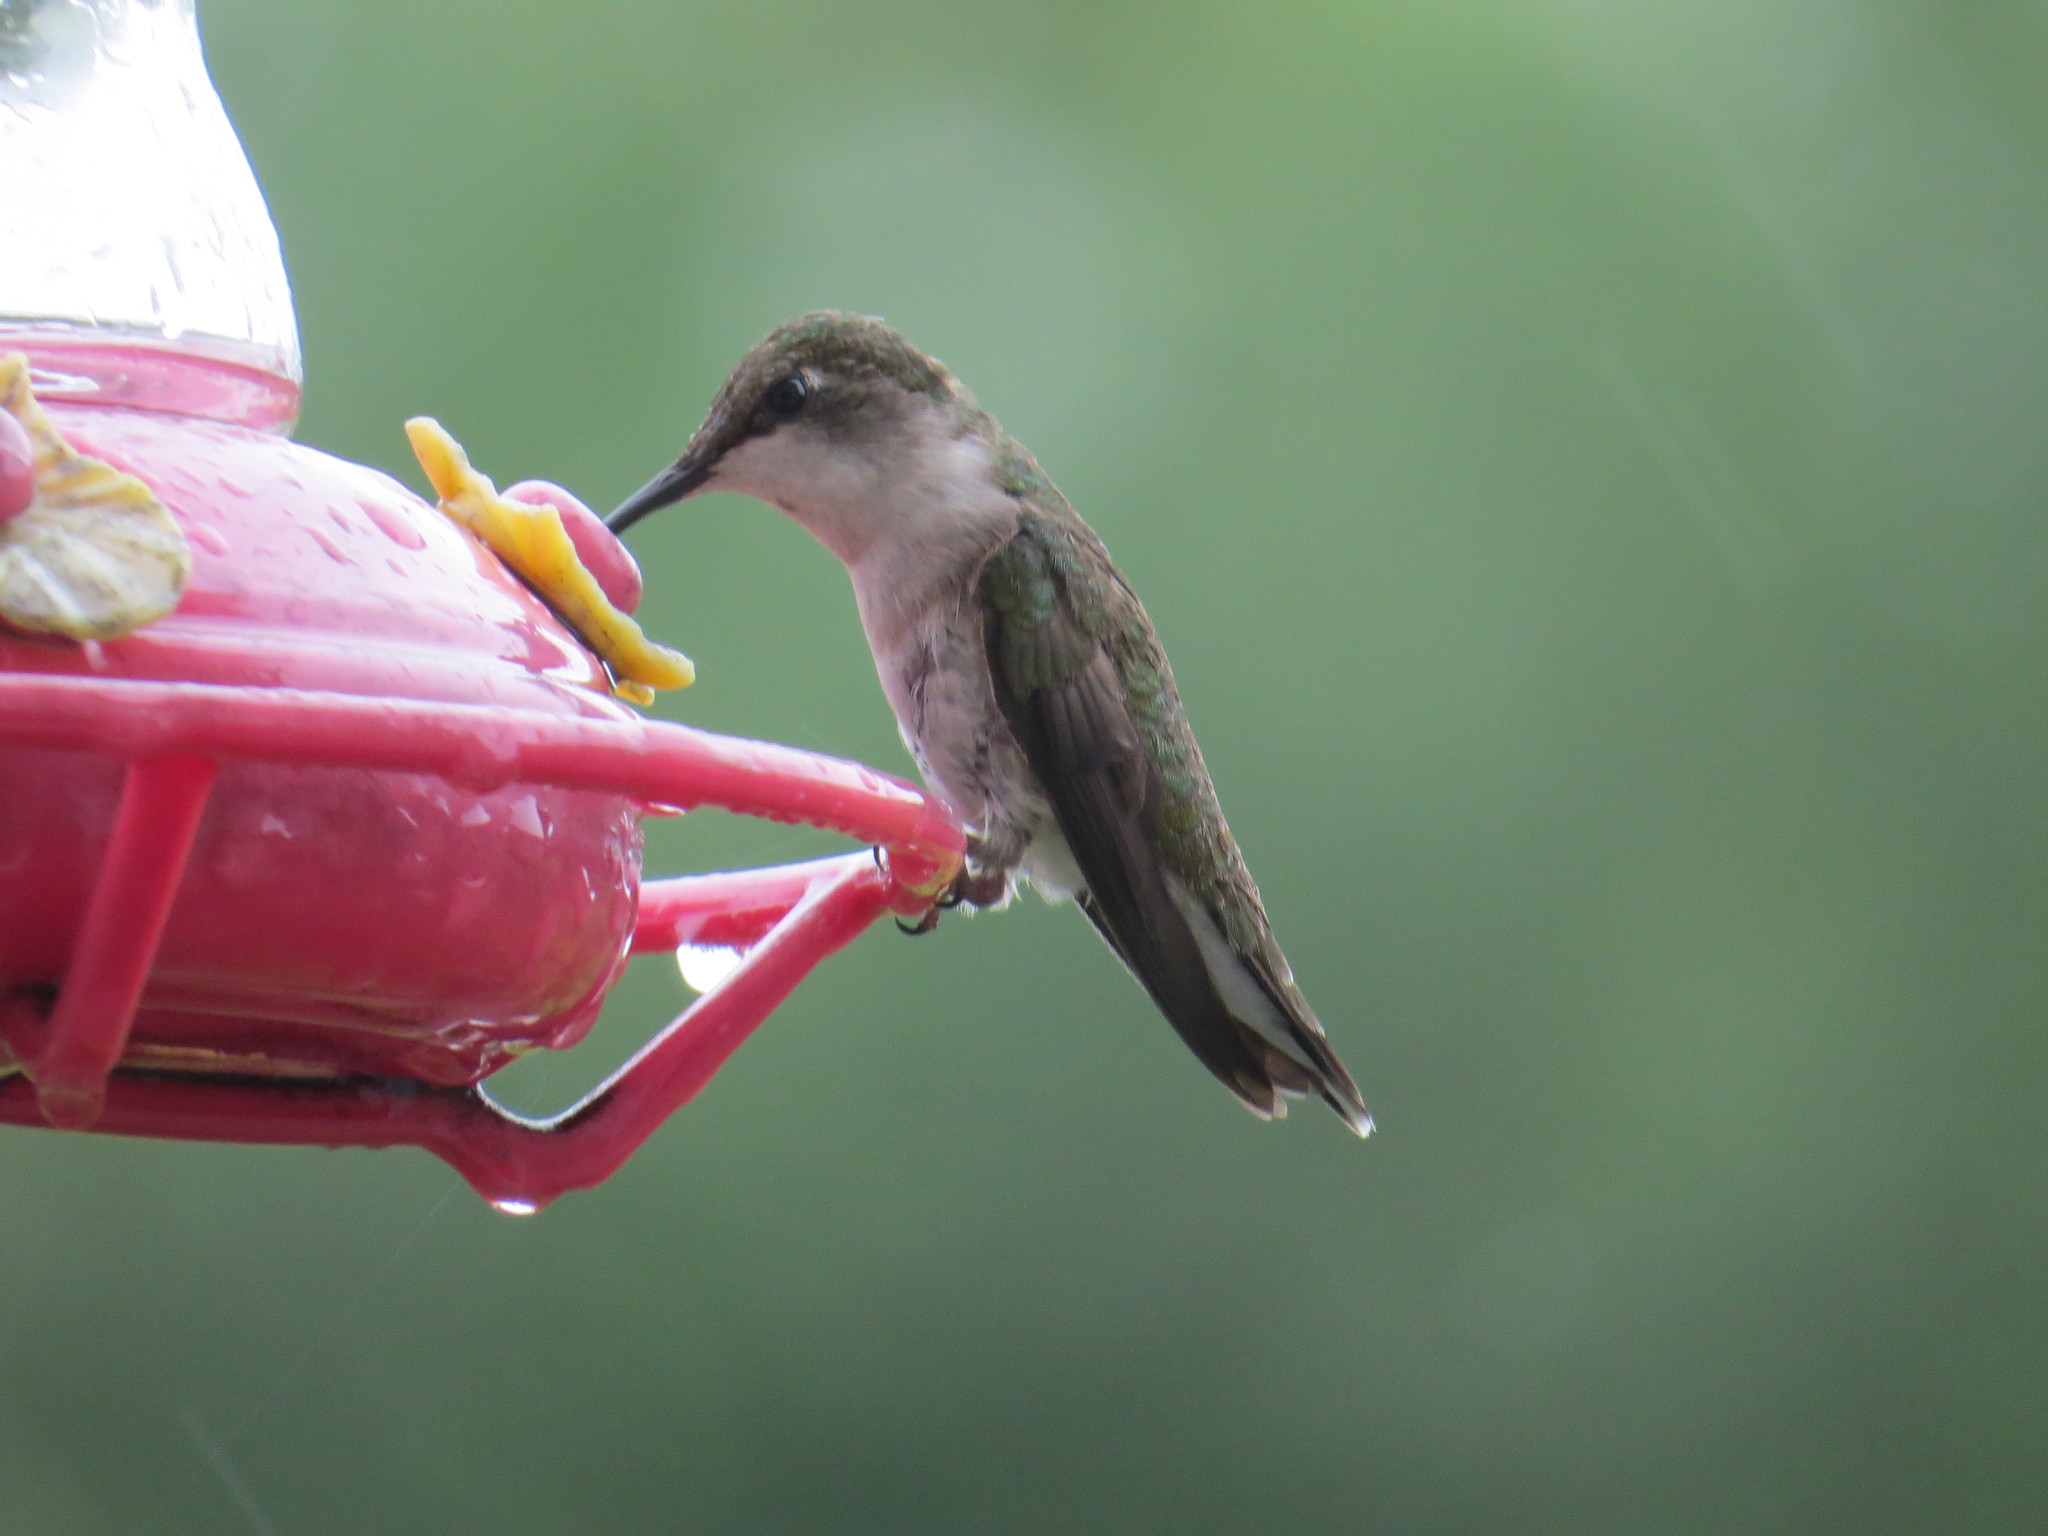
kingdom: Animalia
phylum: Chordata
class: Aves
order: Apodiformes
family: Trochilidae
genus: Archilochus
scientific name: Archilochus colubris
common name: Ruby-throated hummingbird
